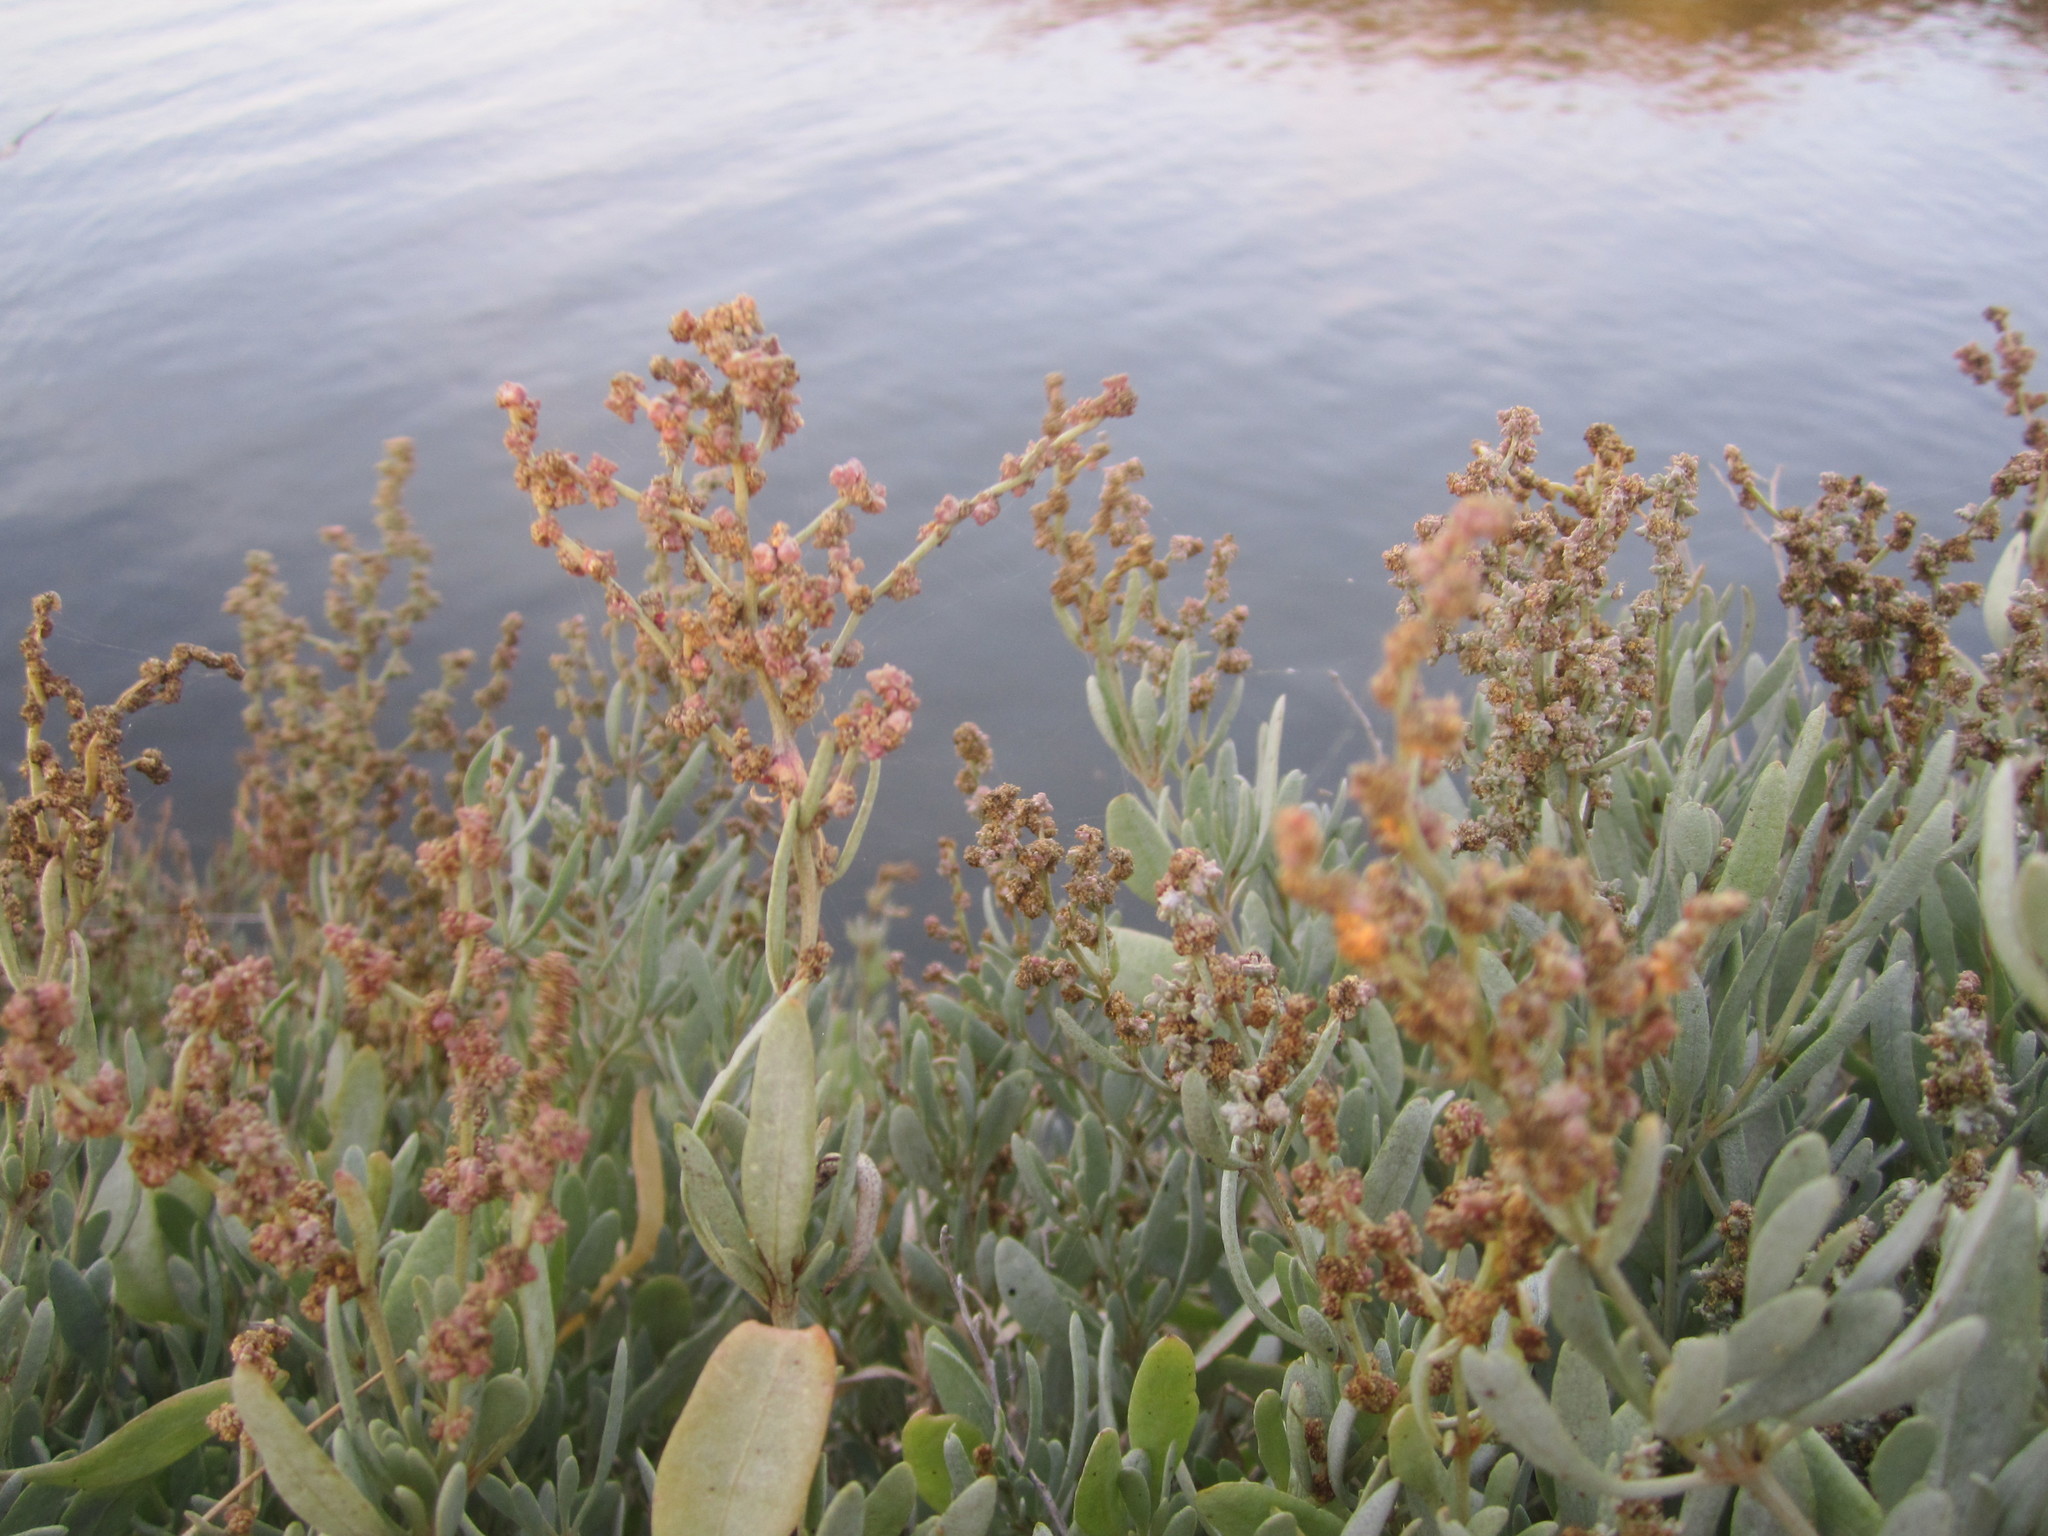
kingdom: Plantae
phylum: Tracheophyta
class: Magnoliopsida
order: Caryophyllales
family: Amaranthaceae
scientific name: Amaranthaceae
